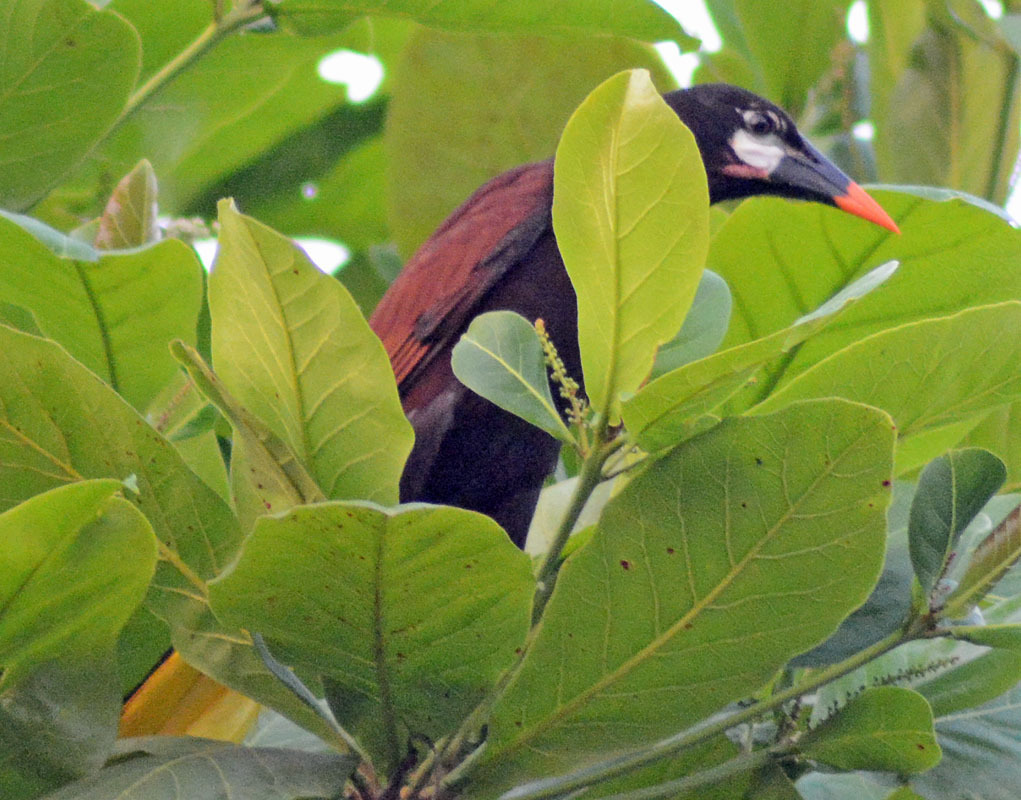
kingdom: Animalia
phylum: Chordata
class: Aves
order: Passeriformes
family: Icteridae
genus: Psarocolius
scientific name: Psarocolius montezuma
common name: Montezuma oropendola
